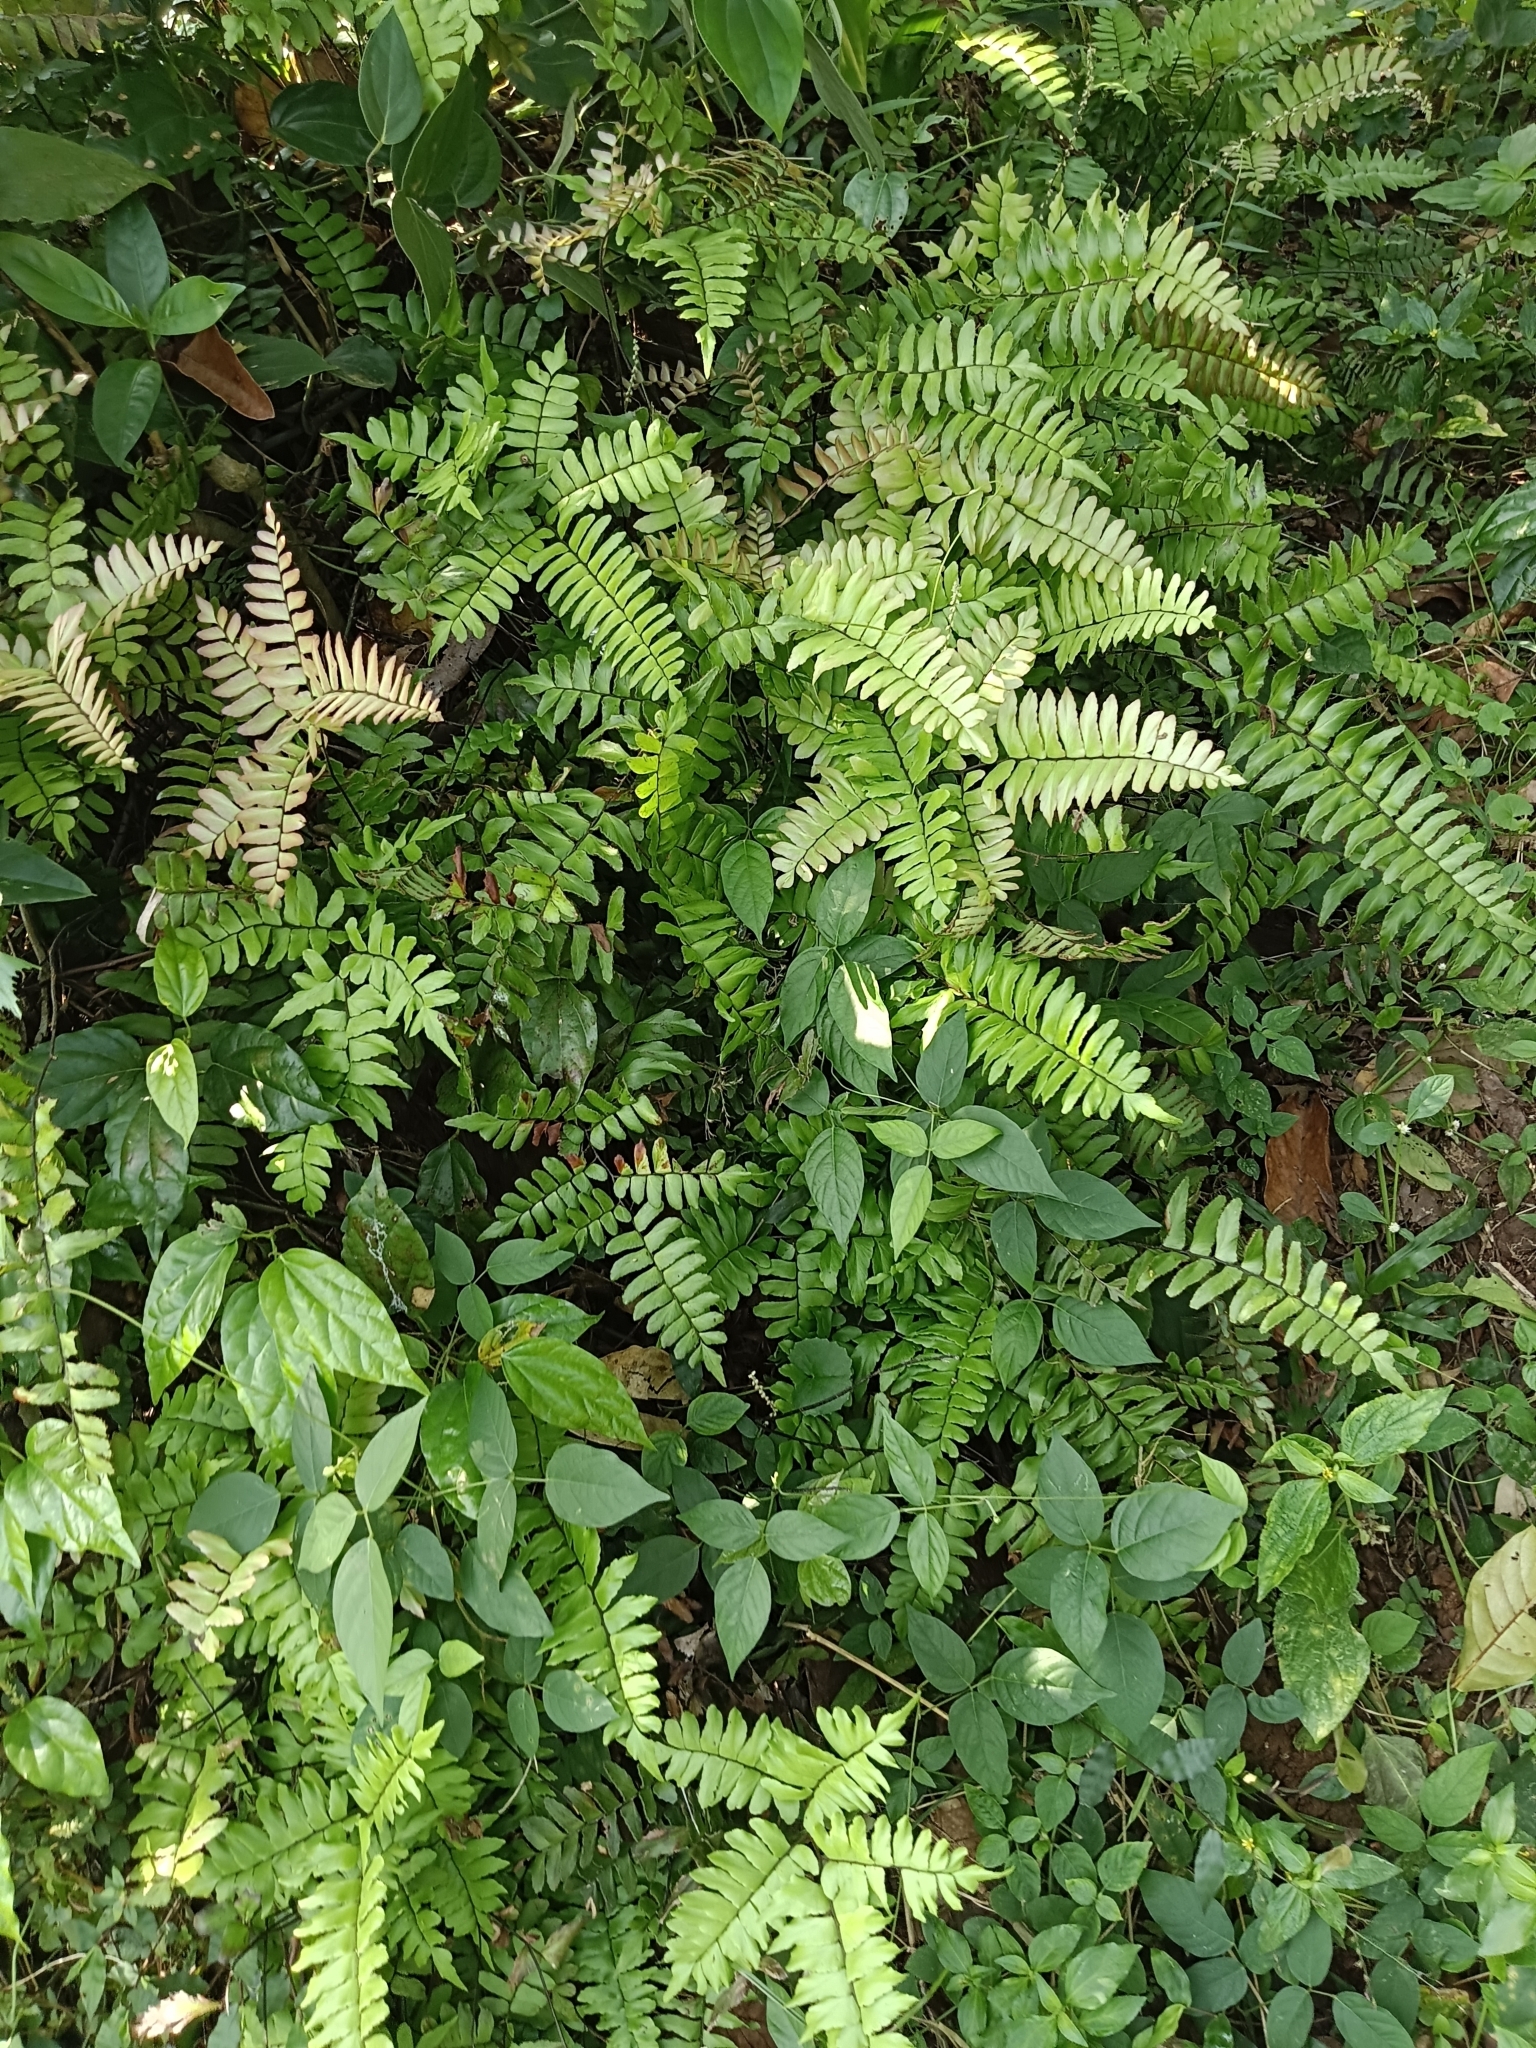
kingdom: Plantae
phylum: Tracheophyta
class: Polypodiopsida
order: Polypodiales
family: Pteridaceae
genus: Adiantum
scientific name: Adiantum latifolium
